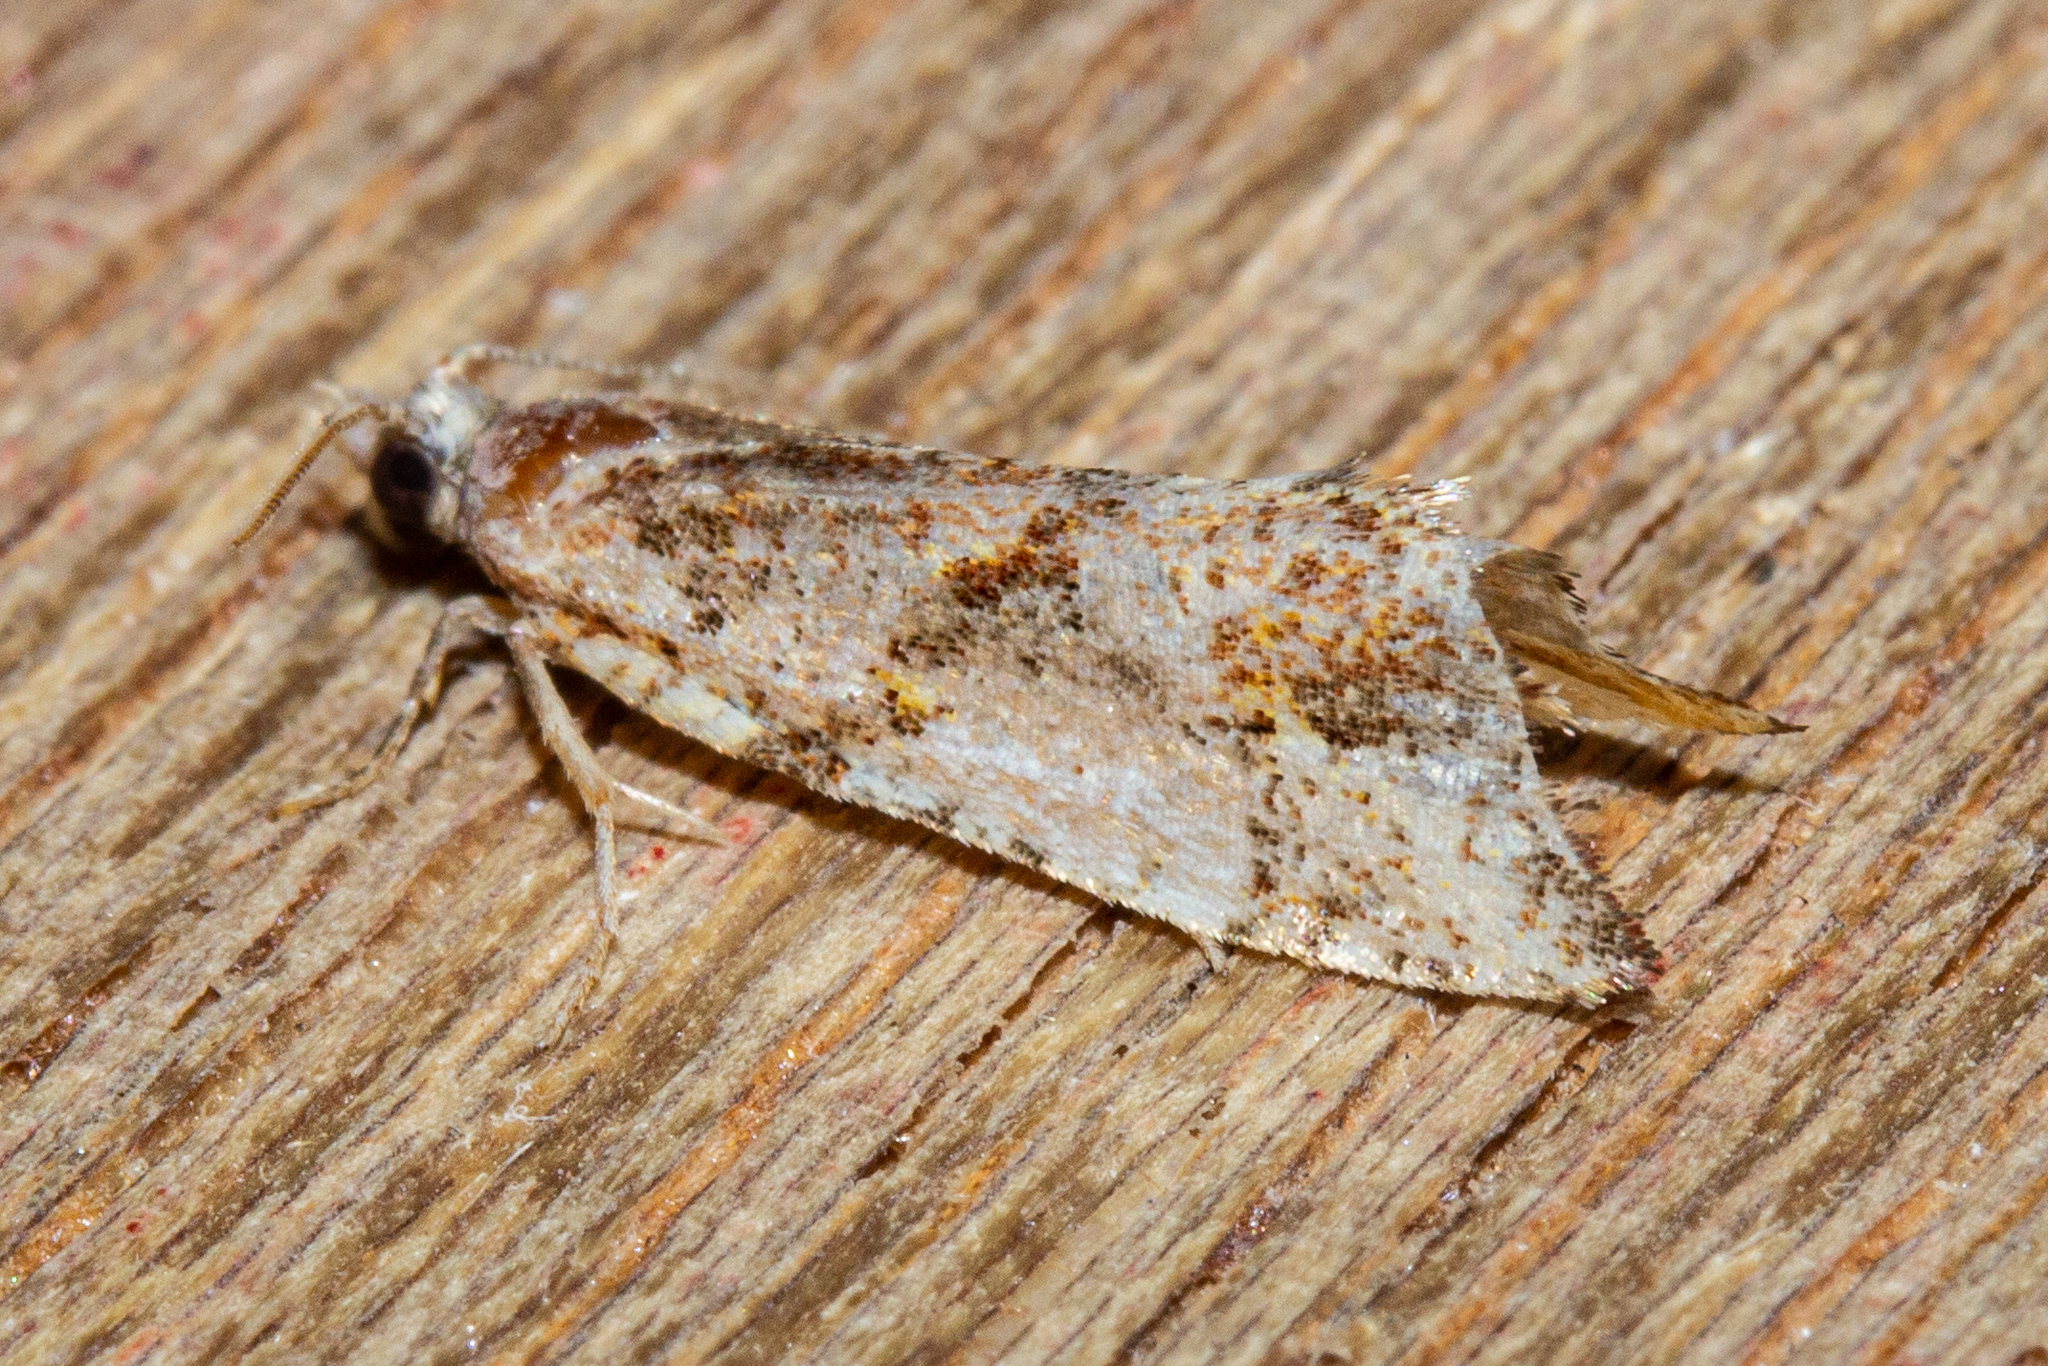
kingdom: Animalia
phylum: Arthropoda
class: Insecta
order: Lepidoptera
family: Tortricidae
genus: Pyrgotis
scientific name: Pyrgotis plagiatana
